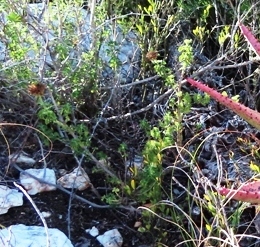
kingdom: Plantae
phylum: Tracheophyta
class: Magnoliopsida
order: Lamiales
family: Lamiaceae
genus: Leonotis
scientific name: Leonotis ocymifolia
